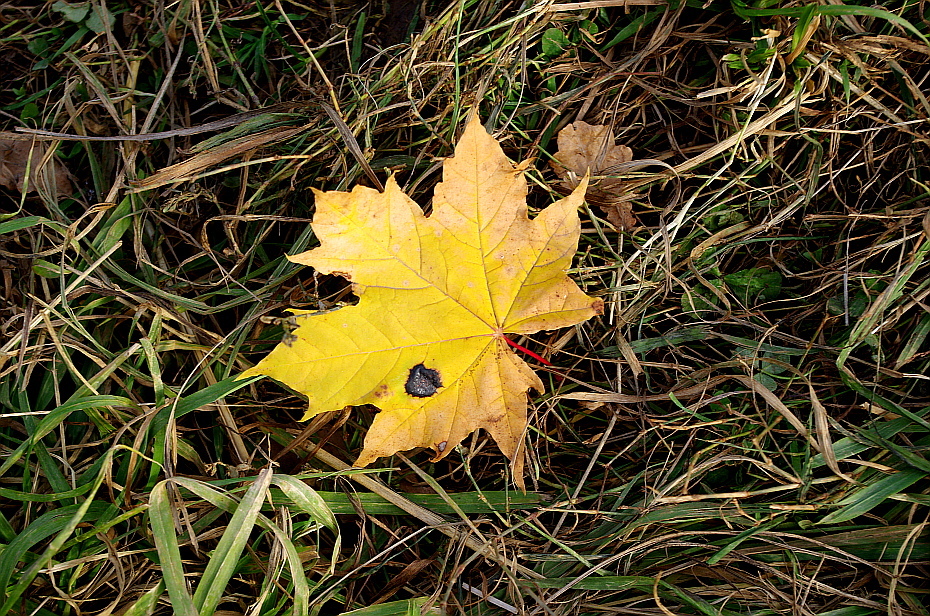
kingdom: Fungi
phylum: Ascomycota
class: Leotiomycetes
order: Rhytismatales
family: Rhytismataceae
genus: Rhytisma
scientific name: Rhytisma acerinum
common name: European tar spot
